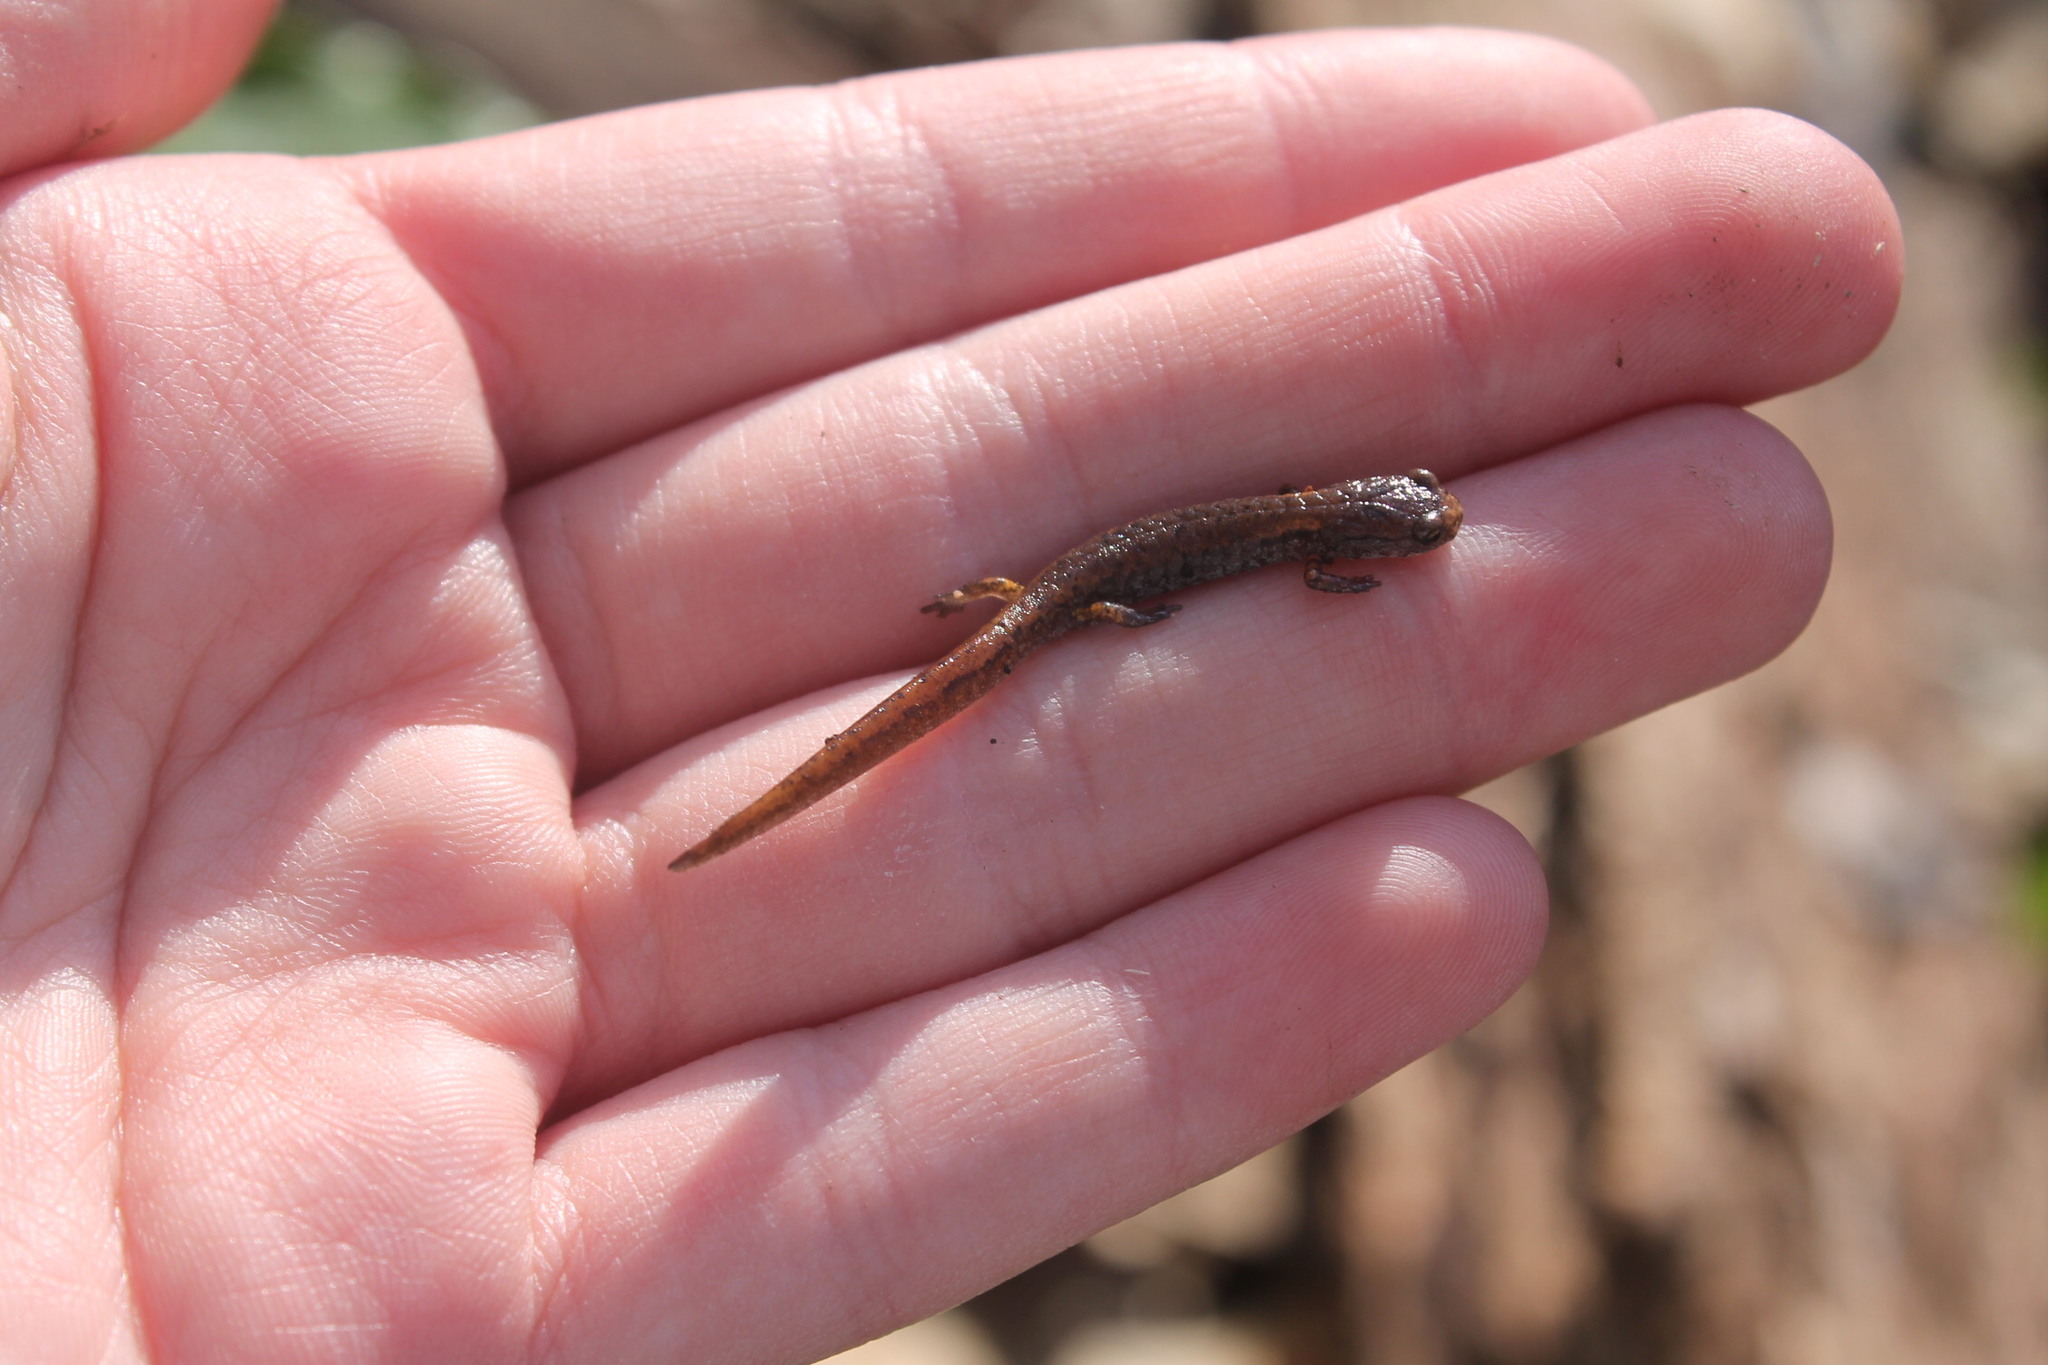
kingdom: Animalia
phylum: Chordata
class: Amphibia
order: Caudata
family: Plethodontidae
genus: Hemidactylium
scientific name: Hemidactylium scutatum
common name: Four-toed salamander
